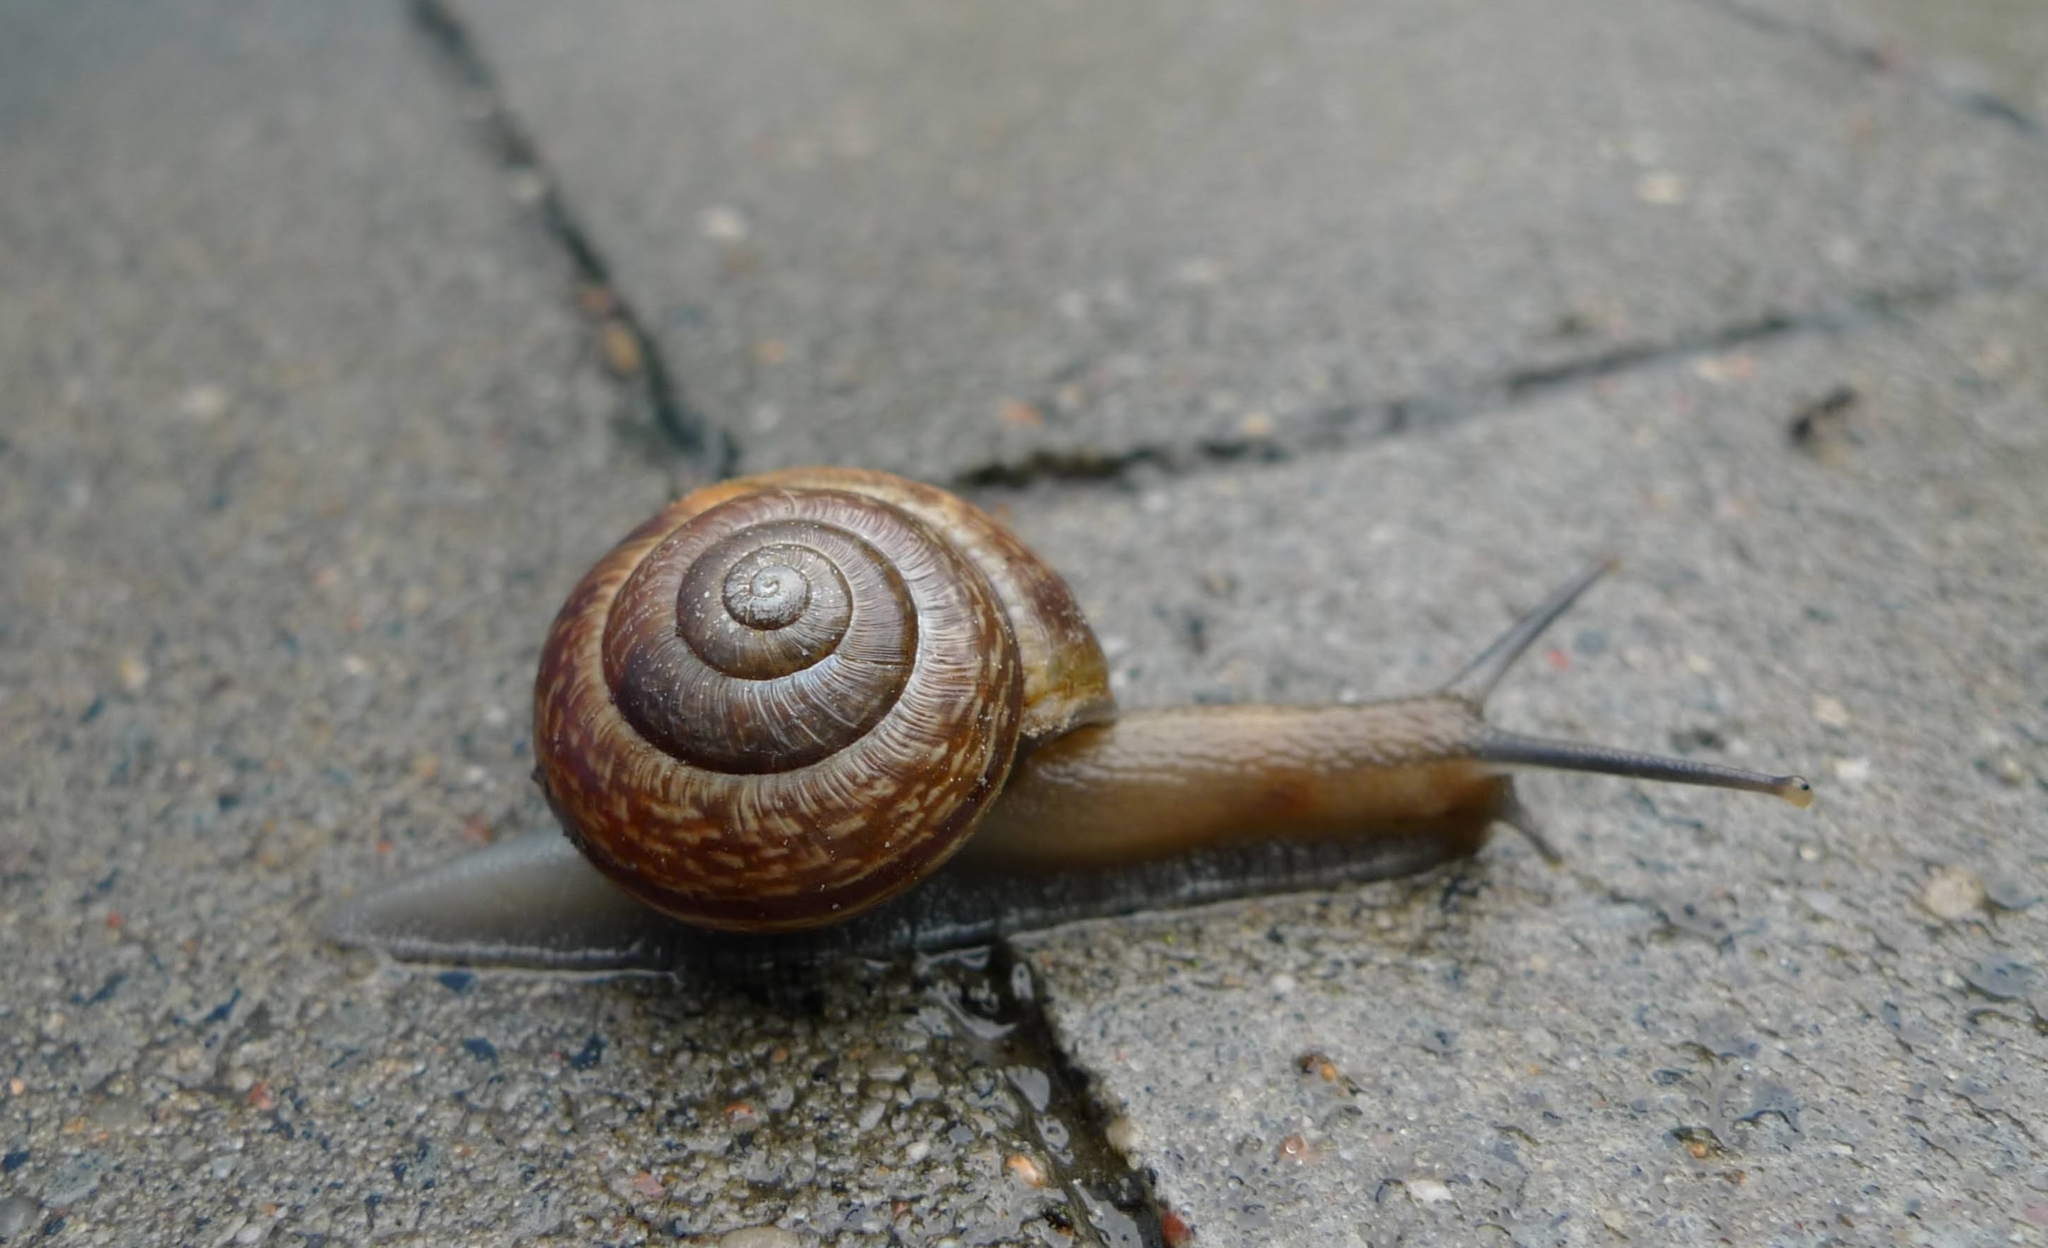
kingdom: Animalia
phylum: Mollusca
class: Gastropoda
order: Stylommatophora
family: Helicidae
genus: Arianta
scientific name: Arianta arbustorum
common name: Copse snail
